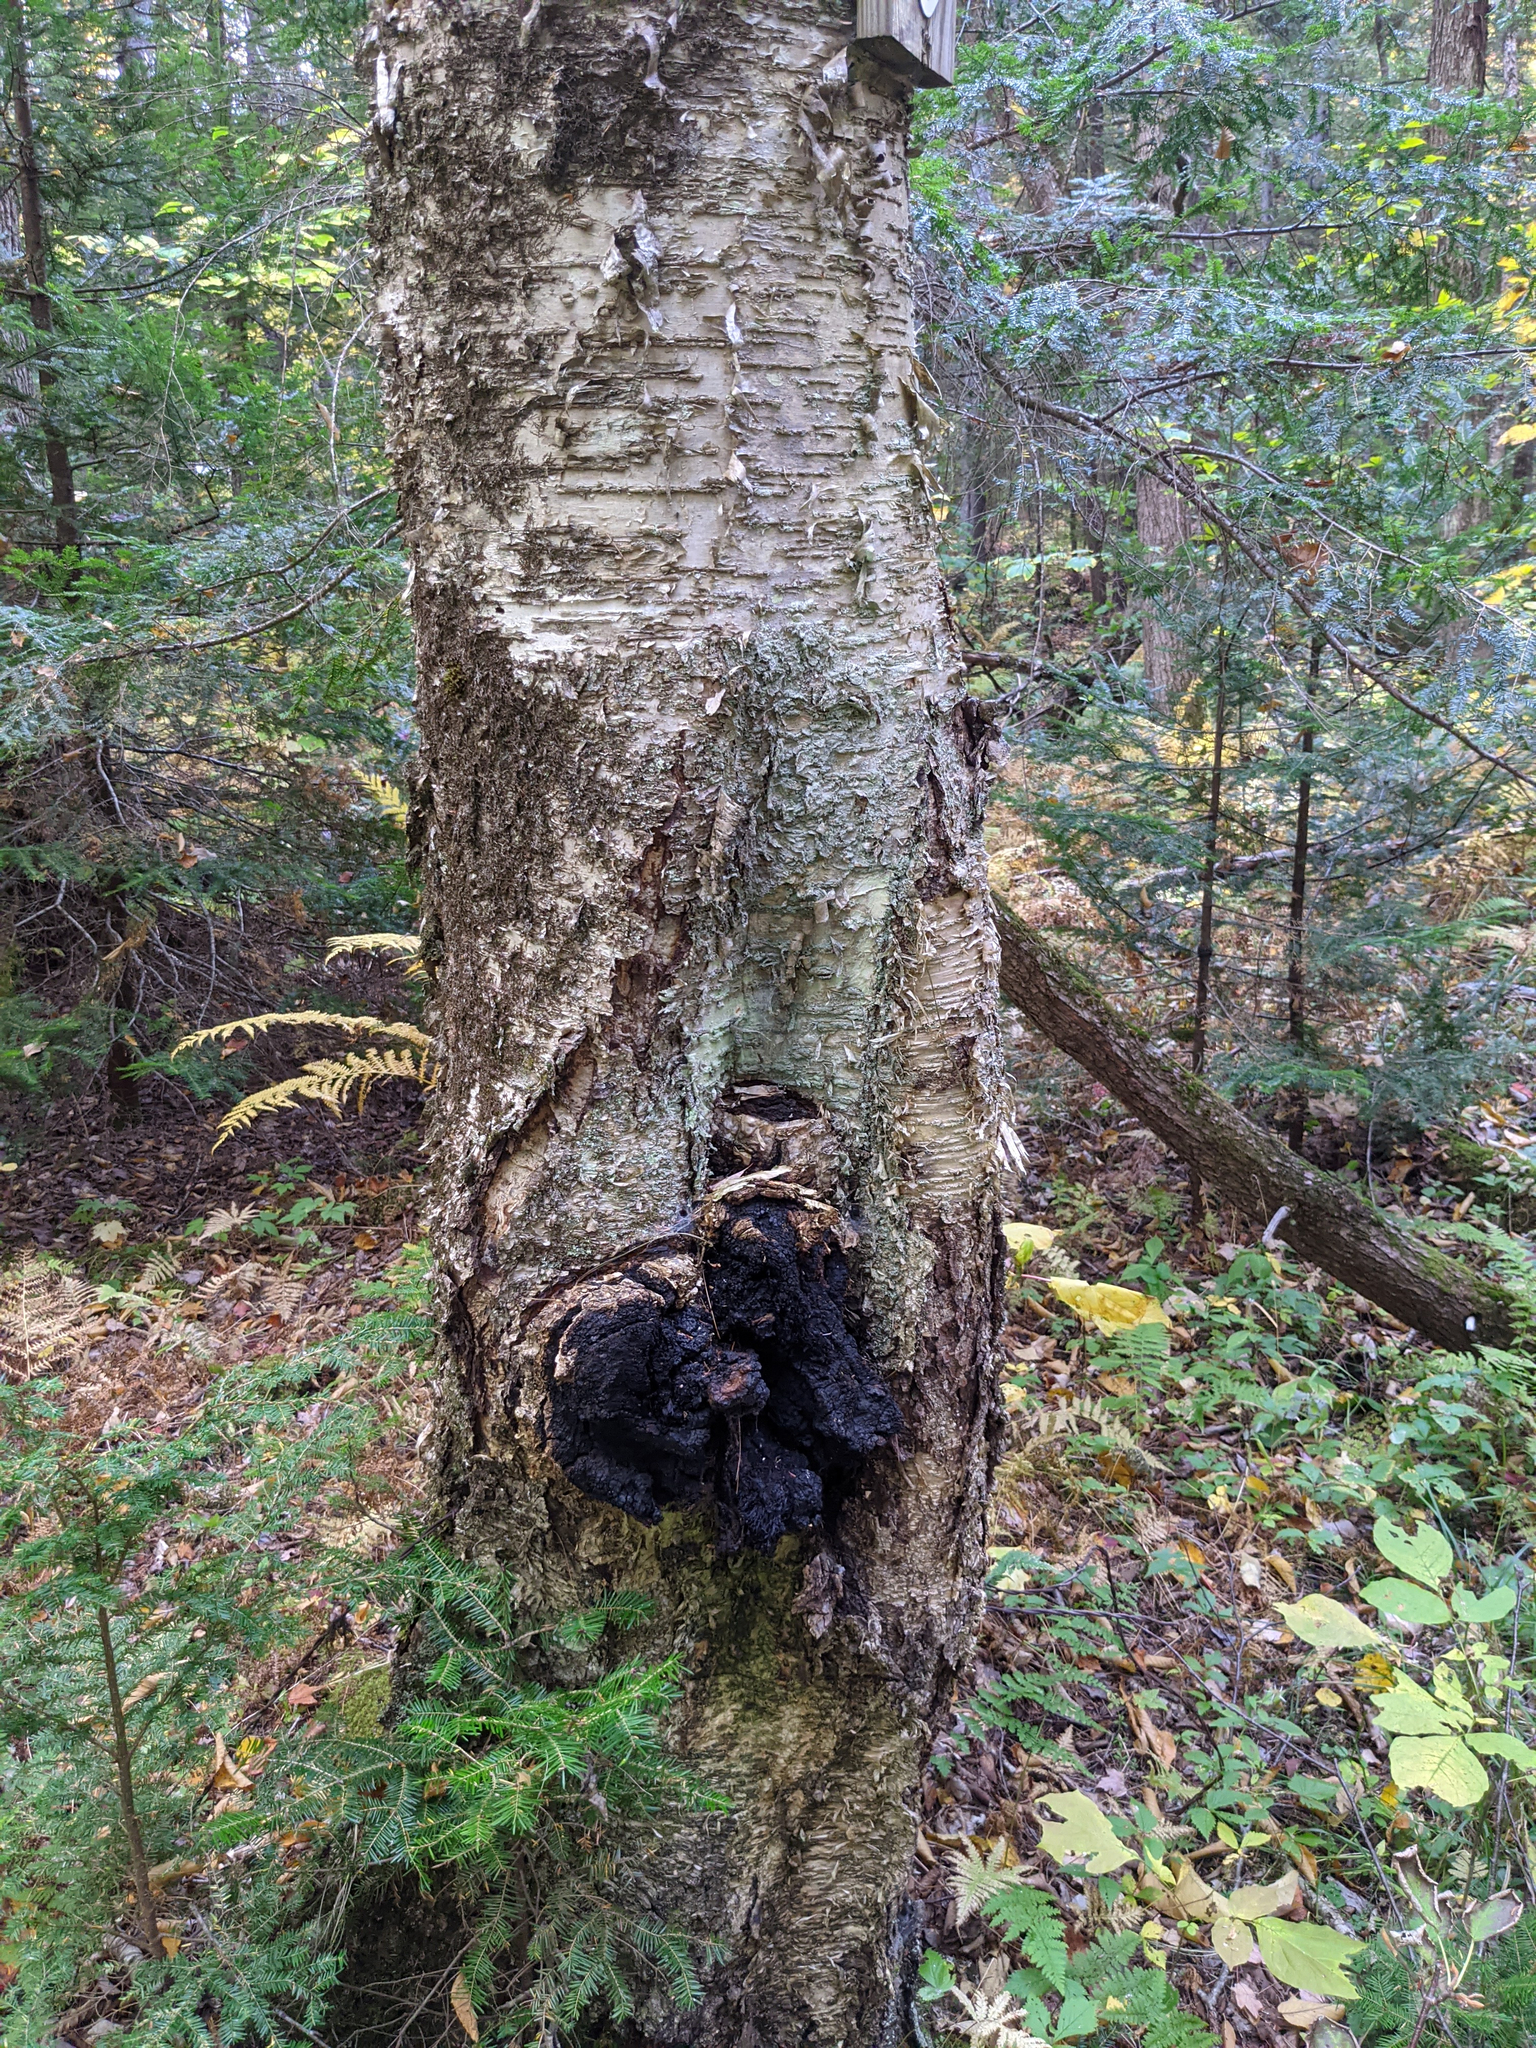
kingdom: Fungi
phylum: Basidiomycota
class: Agaricomycetes
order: Hymenochaetales
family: Hymenochaetaceae
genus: Inonotus
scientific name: Inonotus obliquus
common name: Chaga
